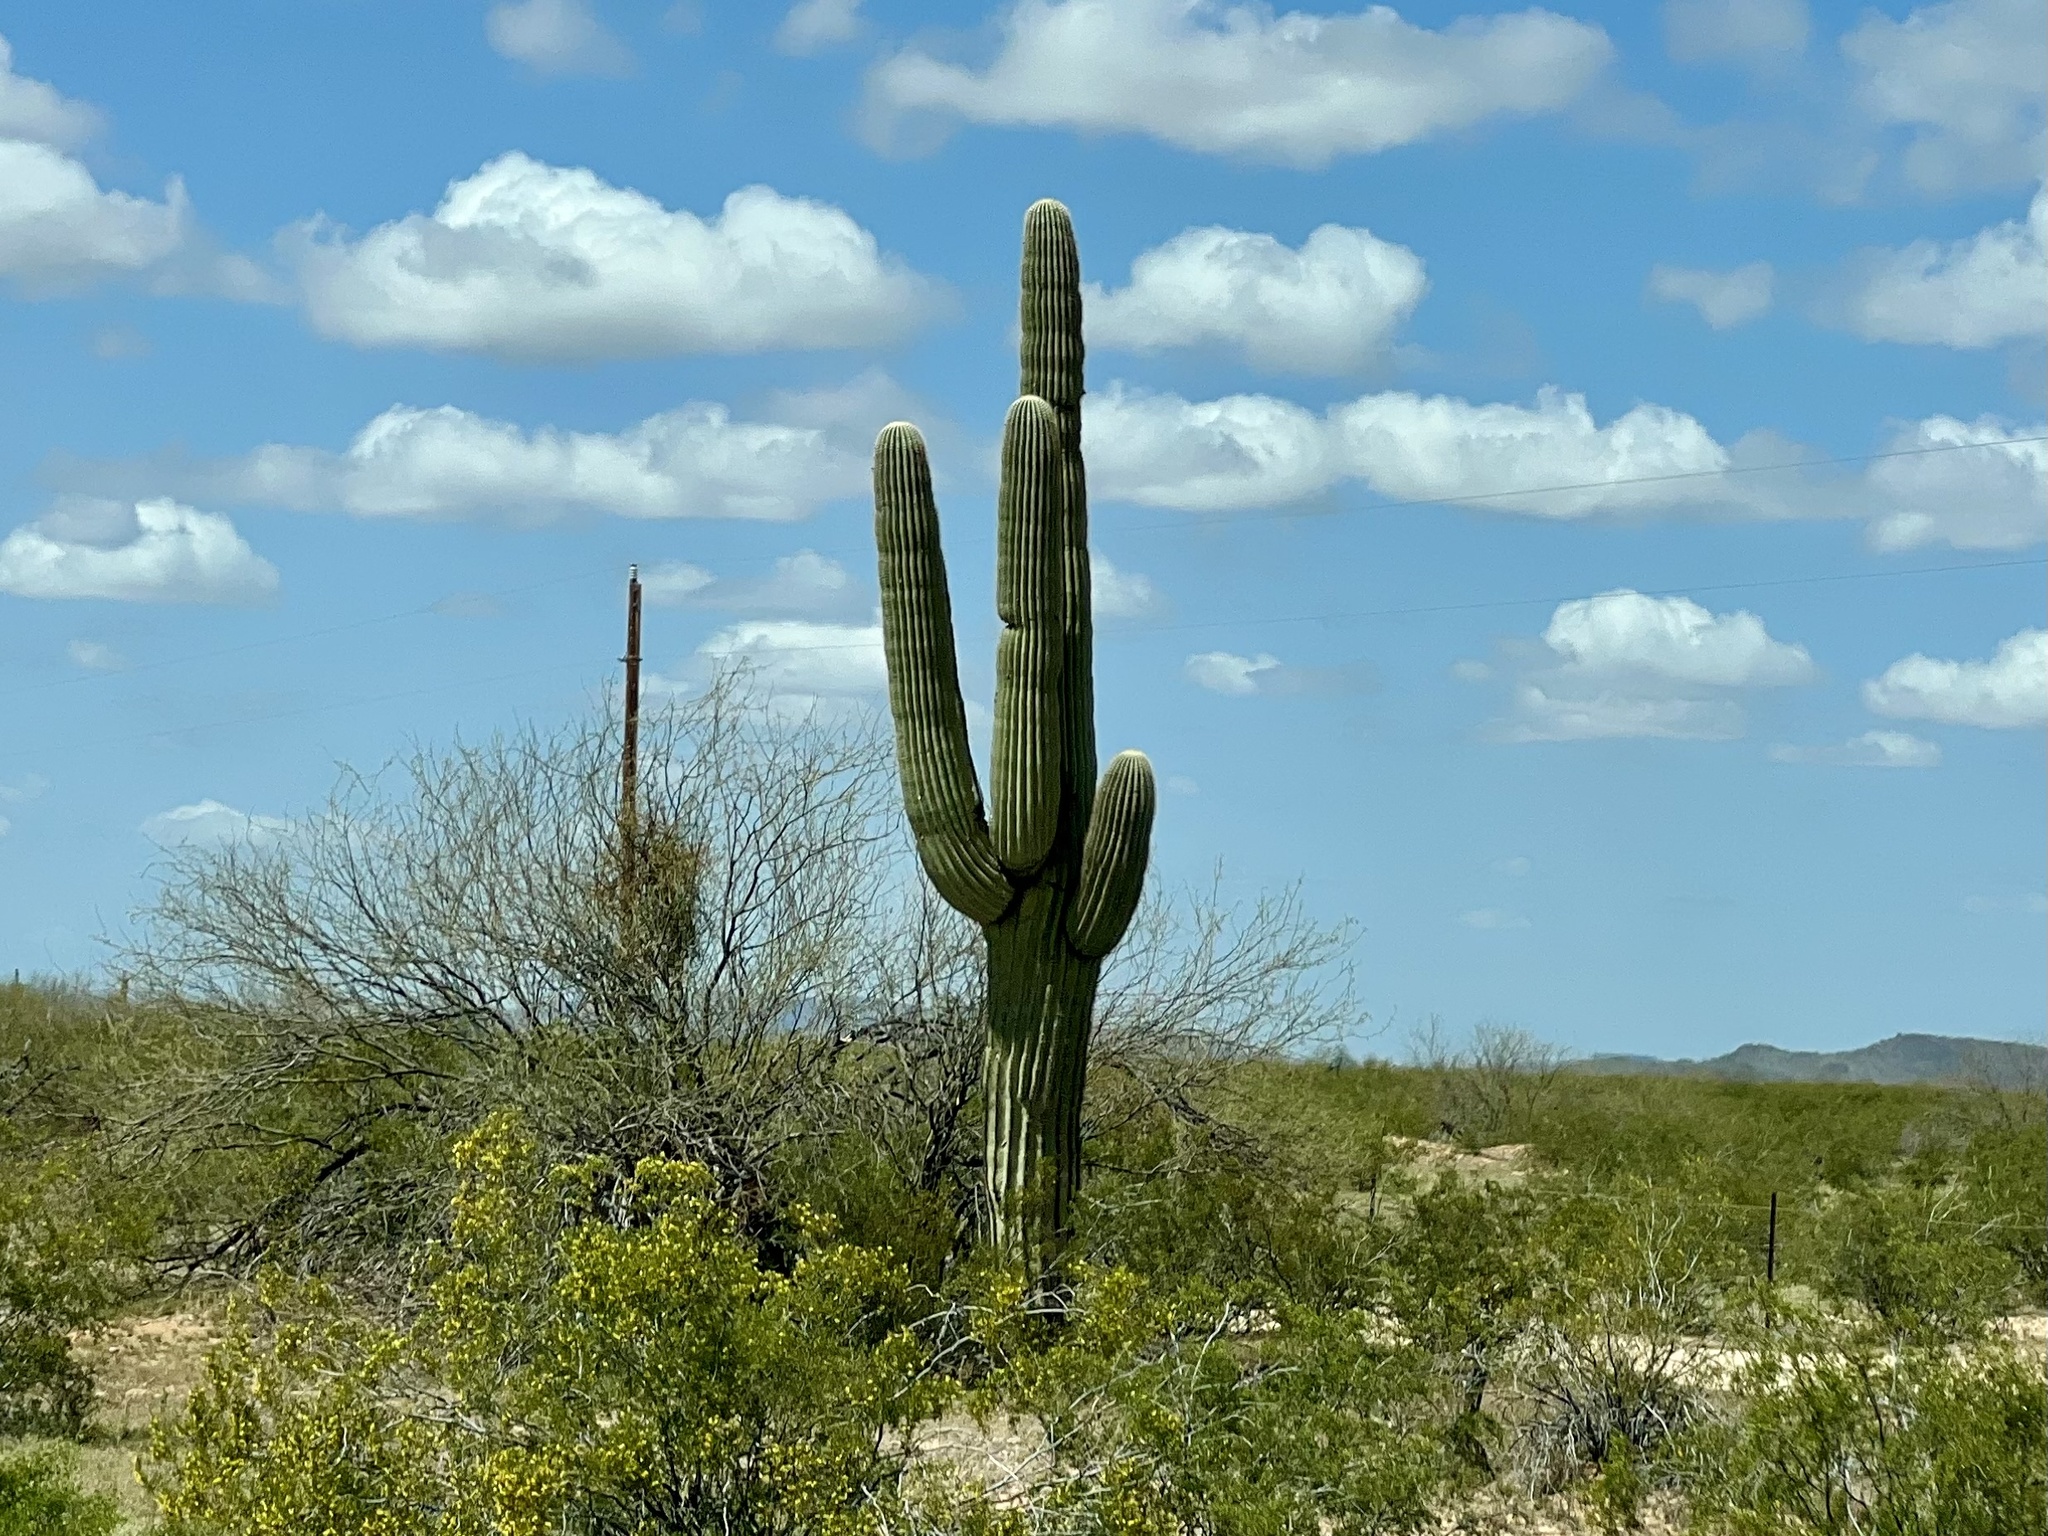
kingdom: Plantae
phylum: Tracheophyta
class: Magnoliopsida
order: Caryophyllales
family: Cactaceae
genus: Carnegiea
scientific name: Carnegiea gigantea
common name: Saguaro
